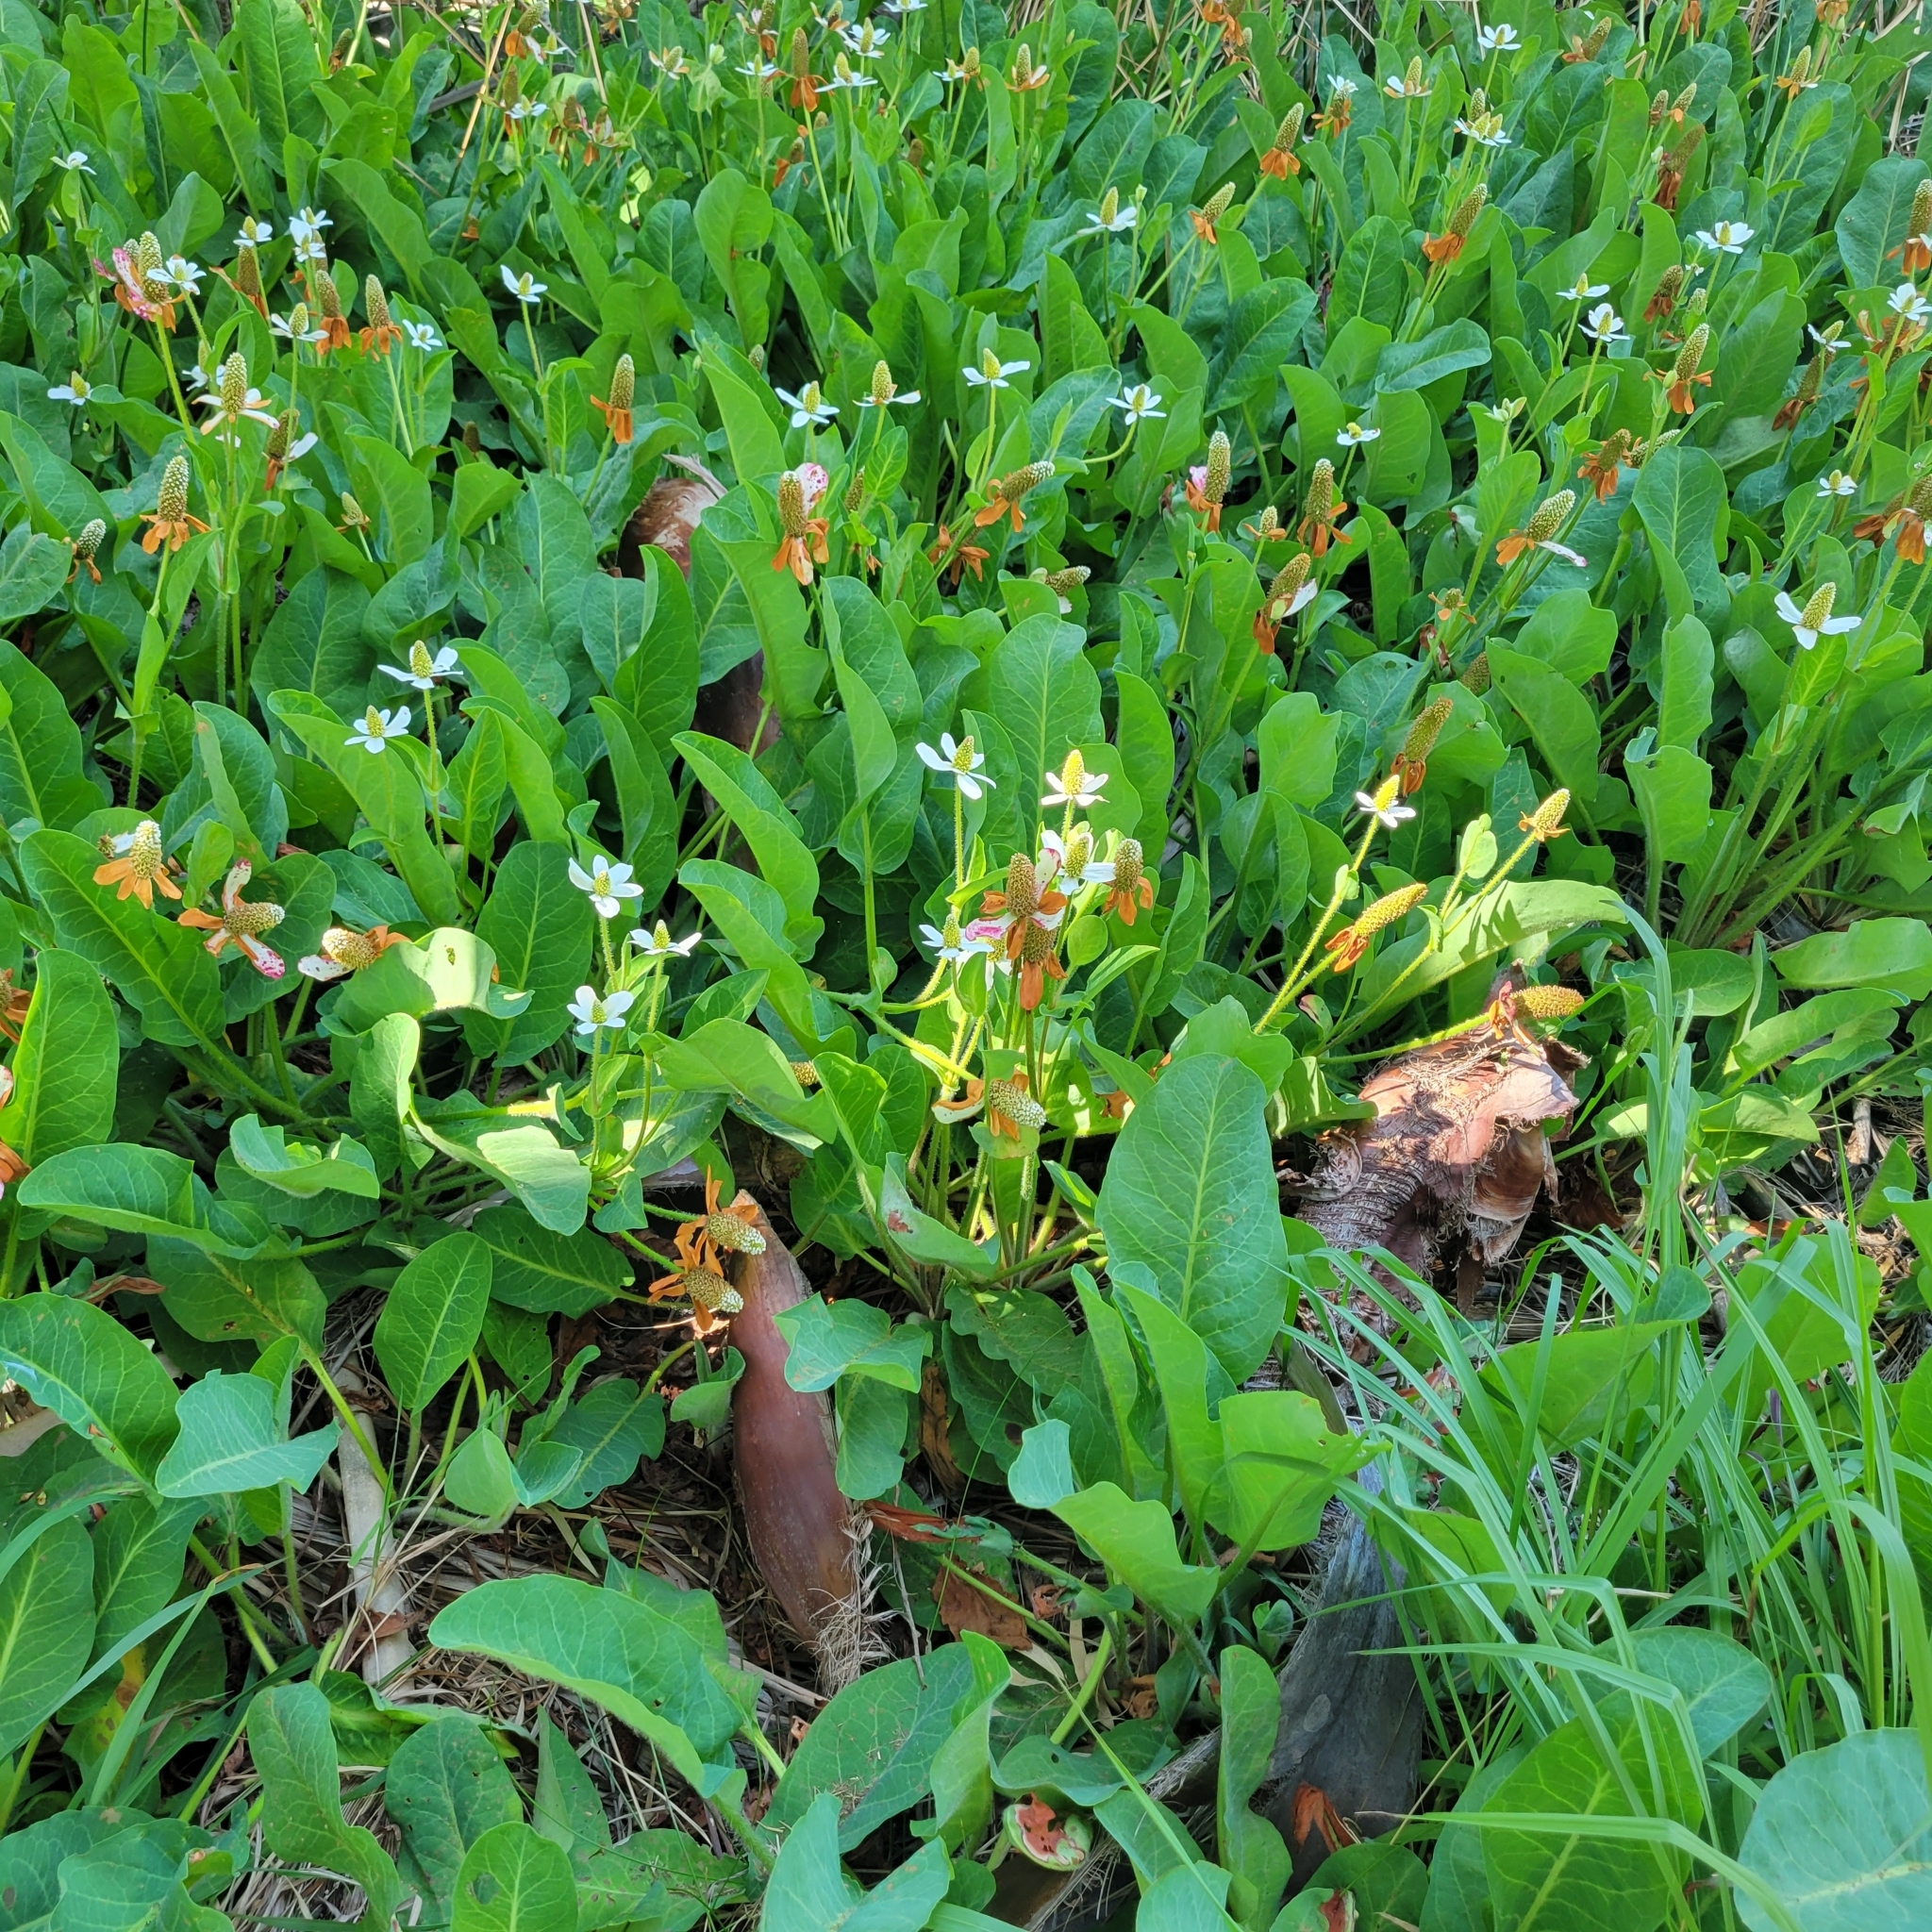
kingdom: Plantae
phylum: Tracheophyta
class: Magnoliopsida
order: Piperales
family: Saururaceae
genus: Anemopsis
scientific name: Anemopsis californica
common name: Apache-beads
